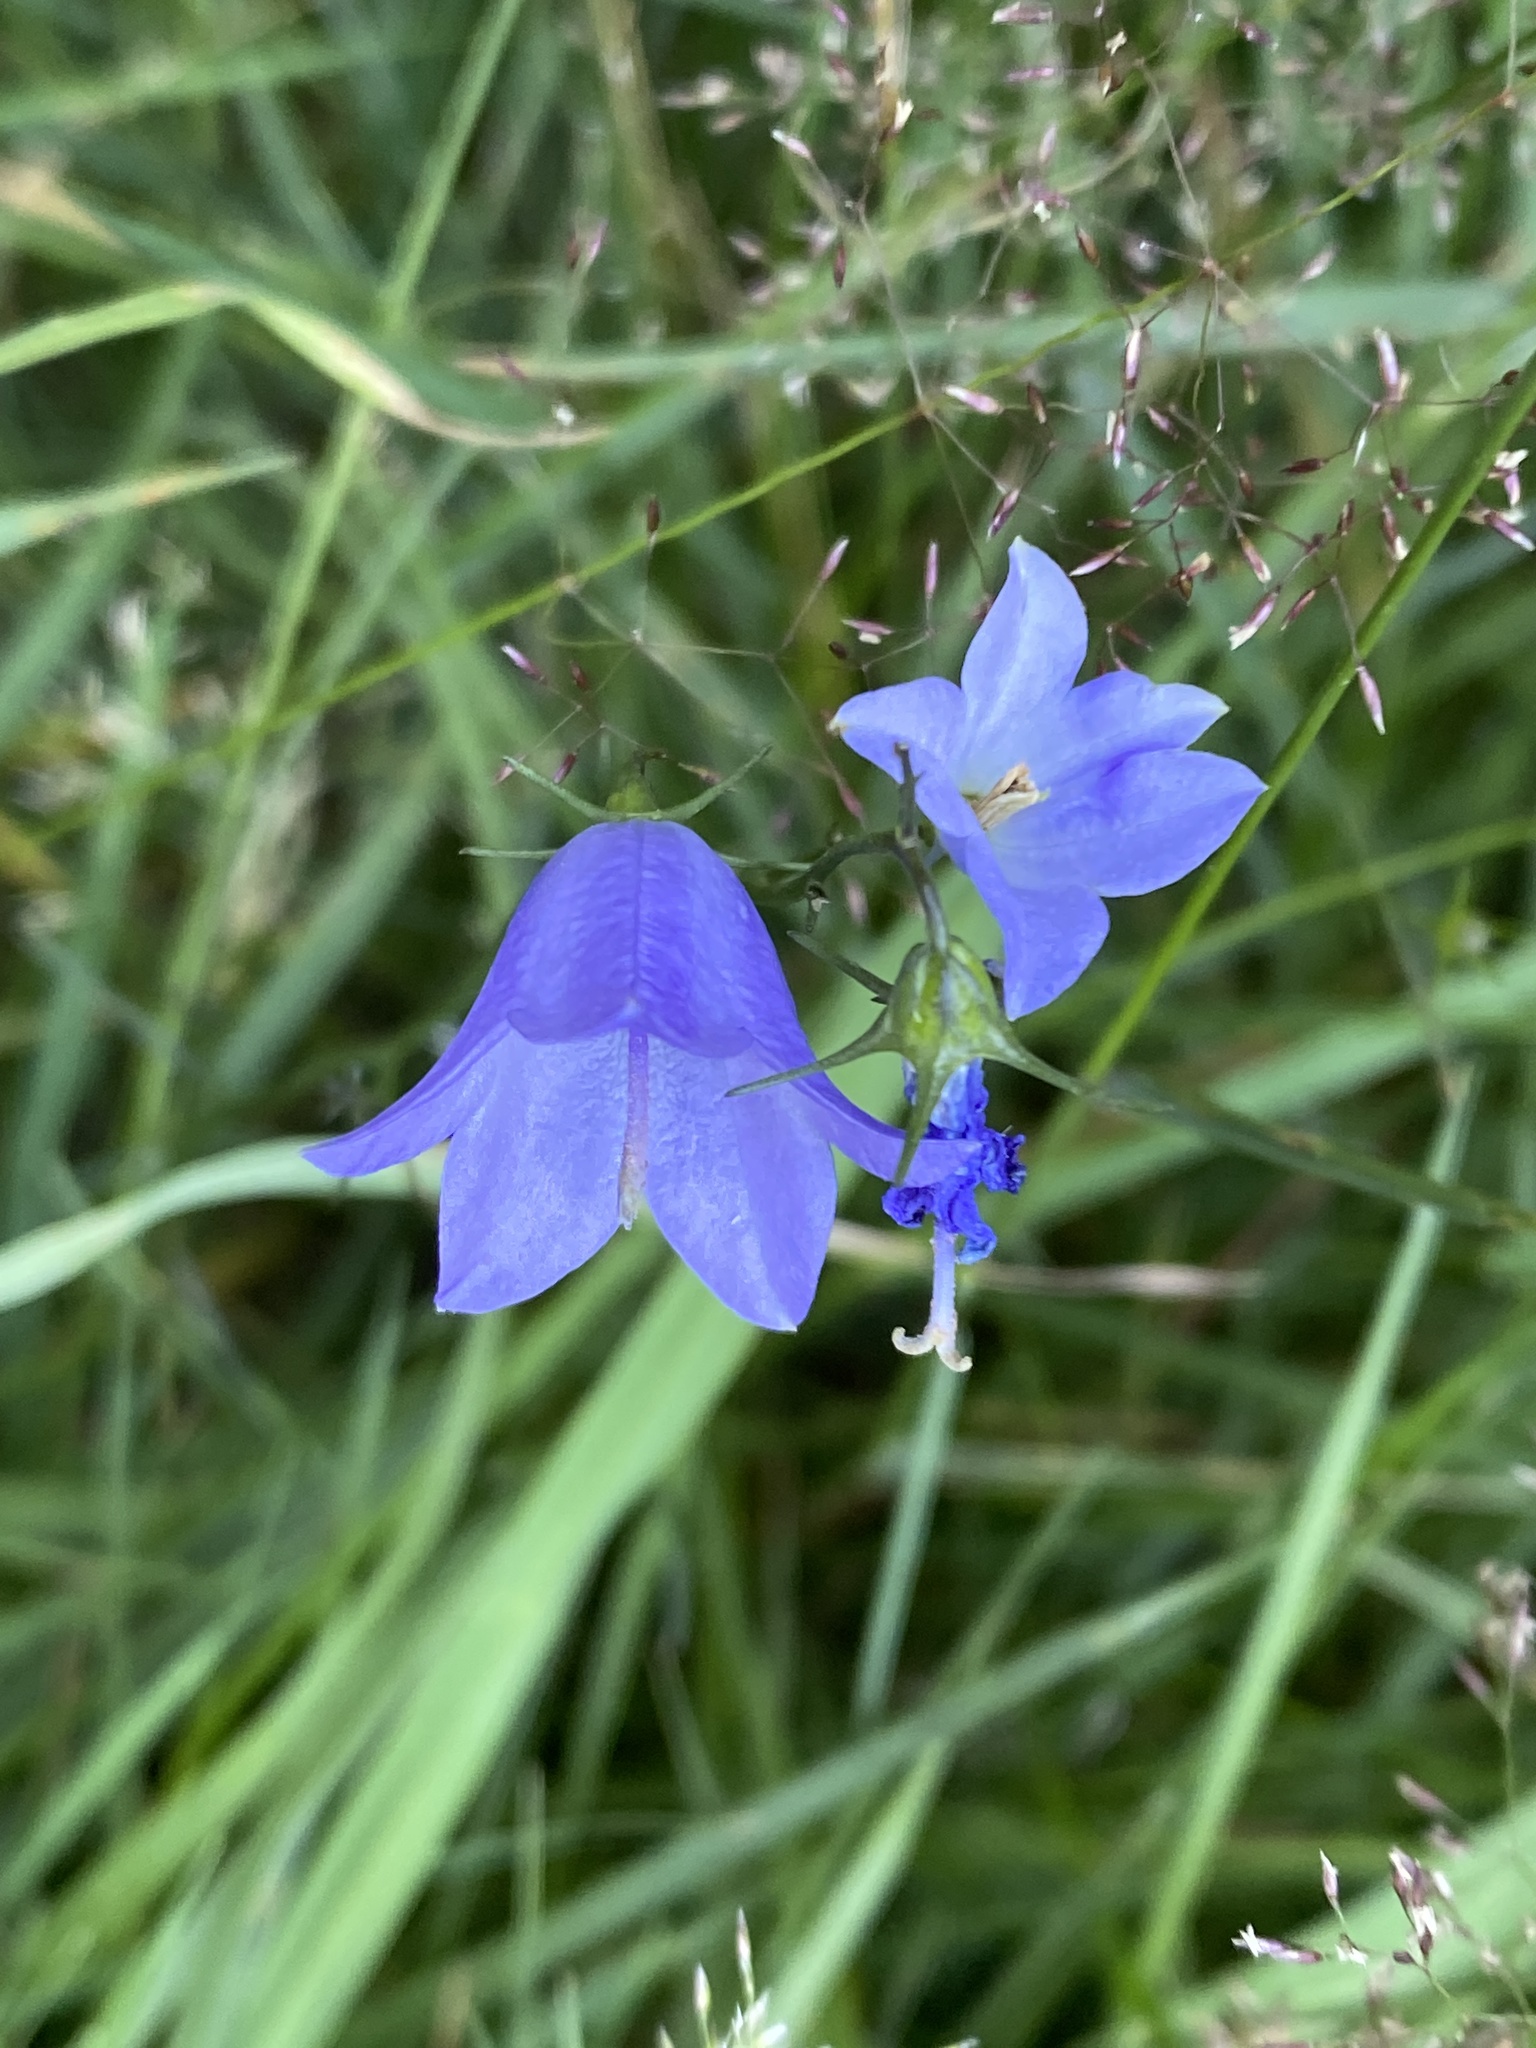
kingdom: Plantae
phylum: Tracheophyta
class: Magnoliopsida
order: Asterales
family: Campanulaceae
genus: Campanula
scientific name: Campanula rotundifolia
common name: Harebell
